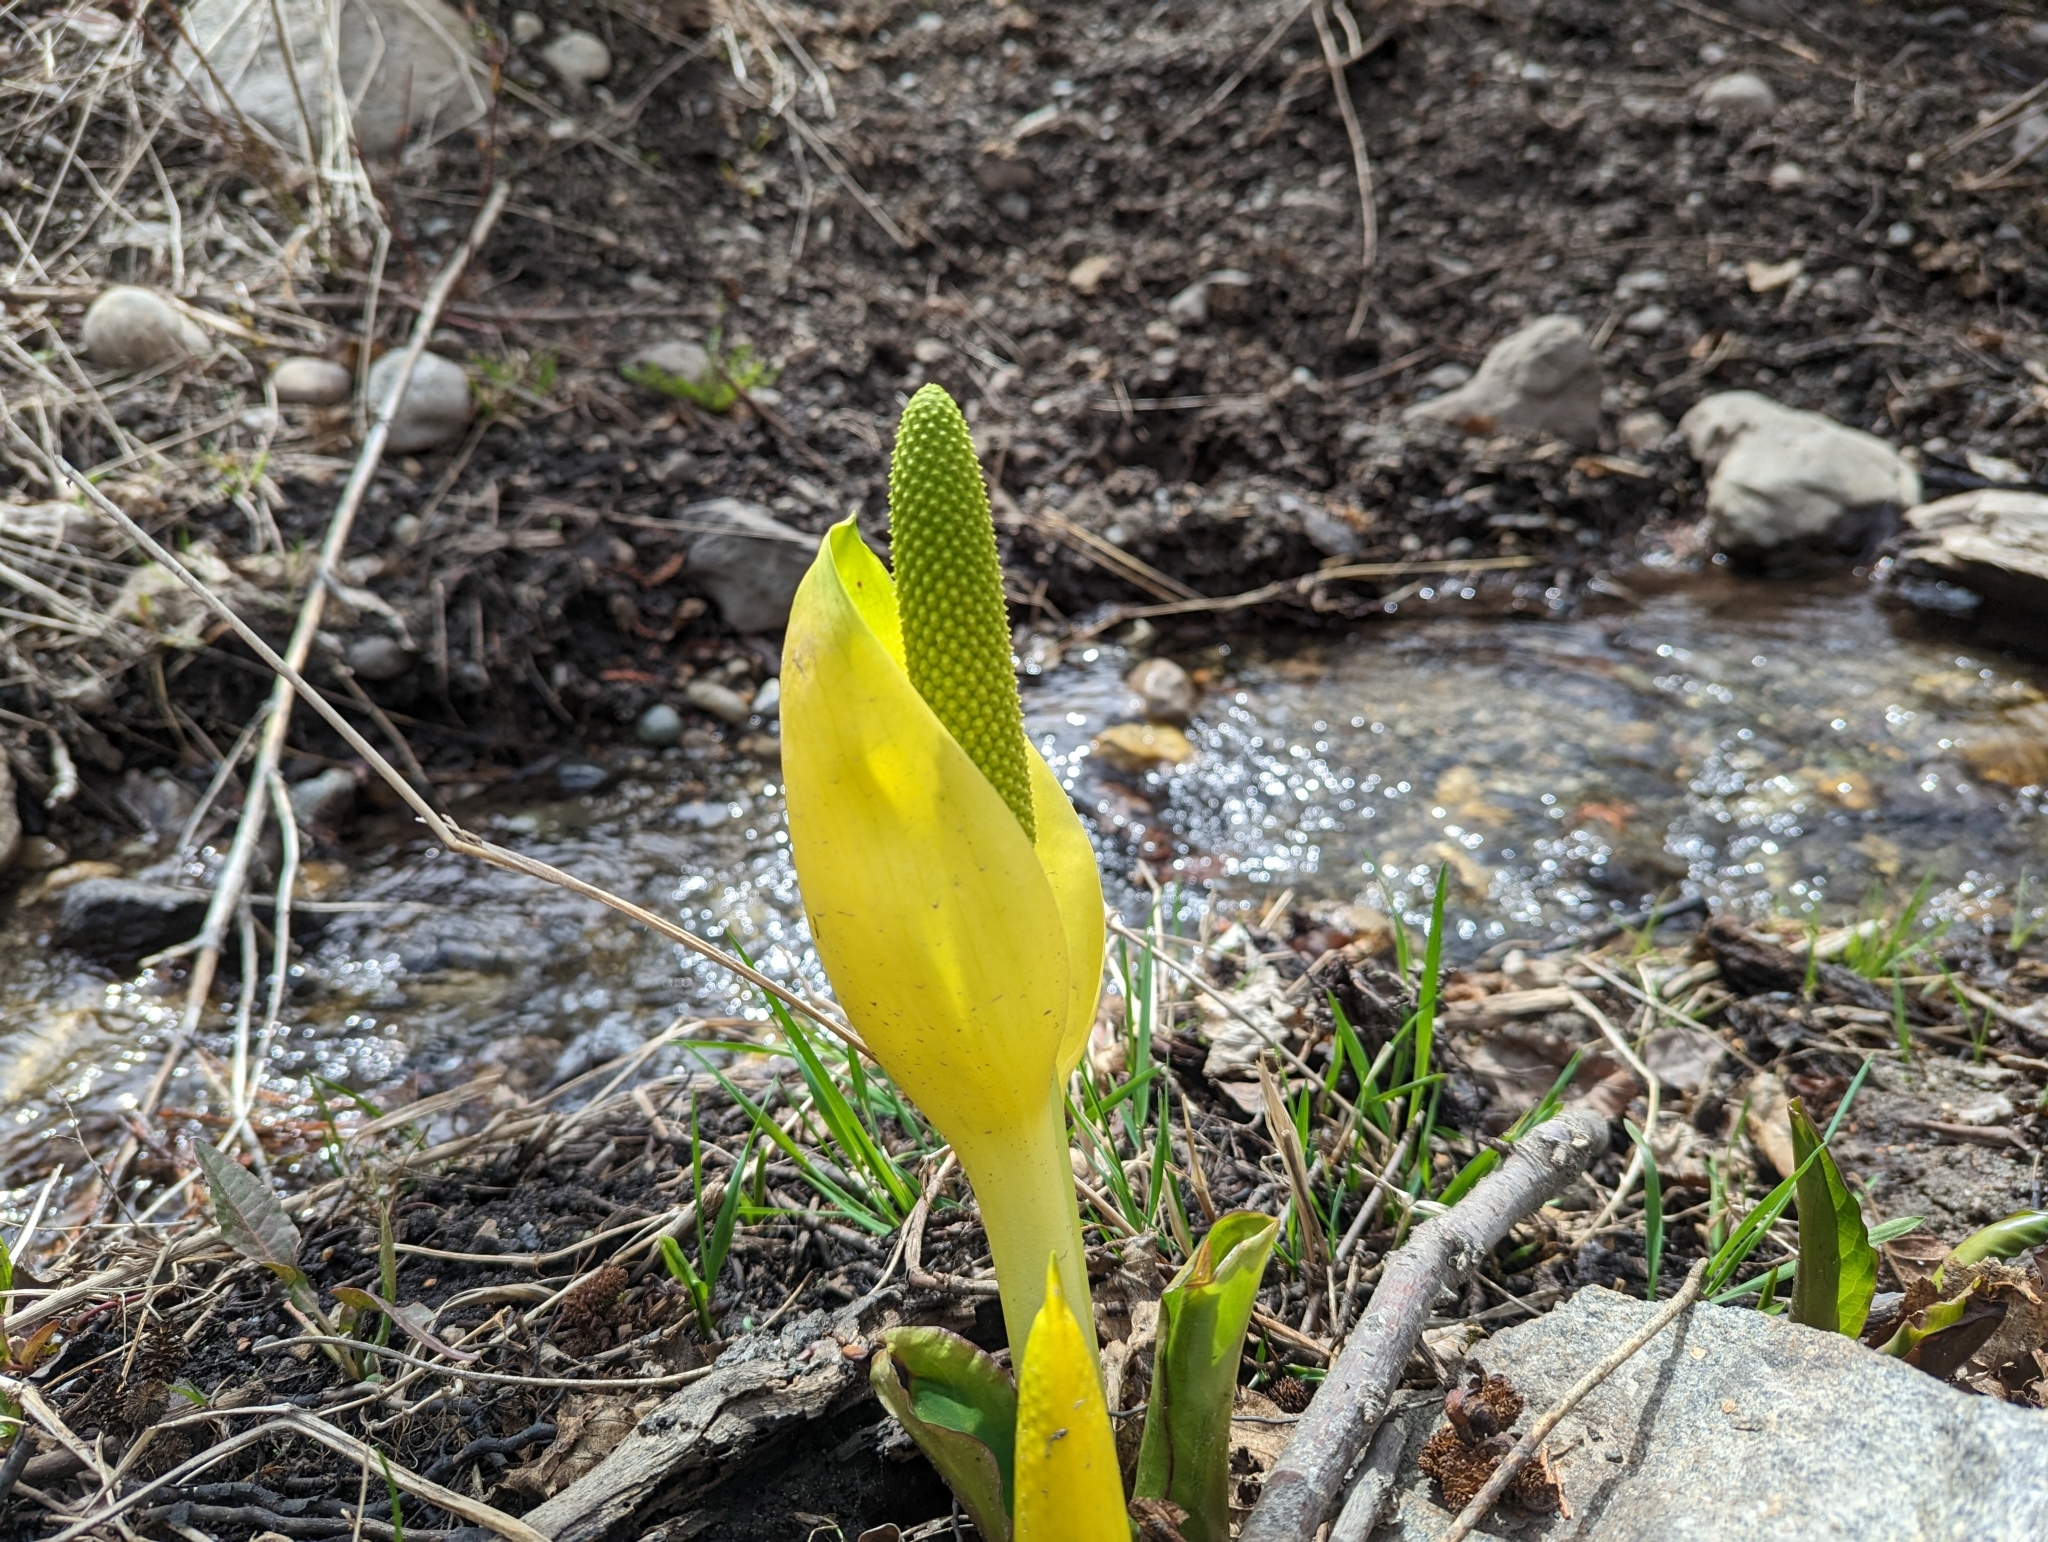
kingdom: Plantae
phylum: Tracheophyta
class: Liliopsida
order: Alismatales
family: Araceae
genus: Lysichiton
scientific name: Lysichiton americanus
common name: American skunk cabbage
